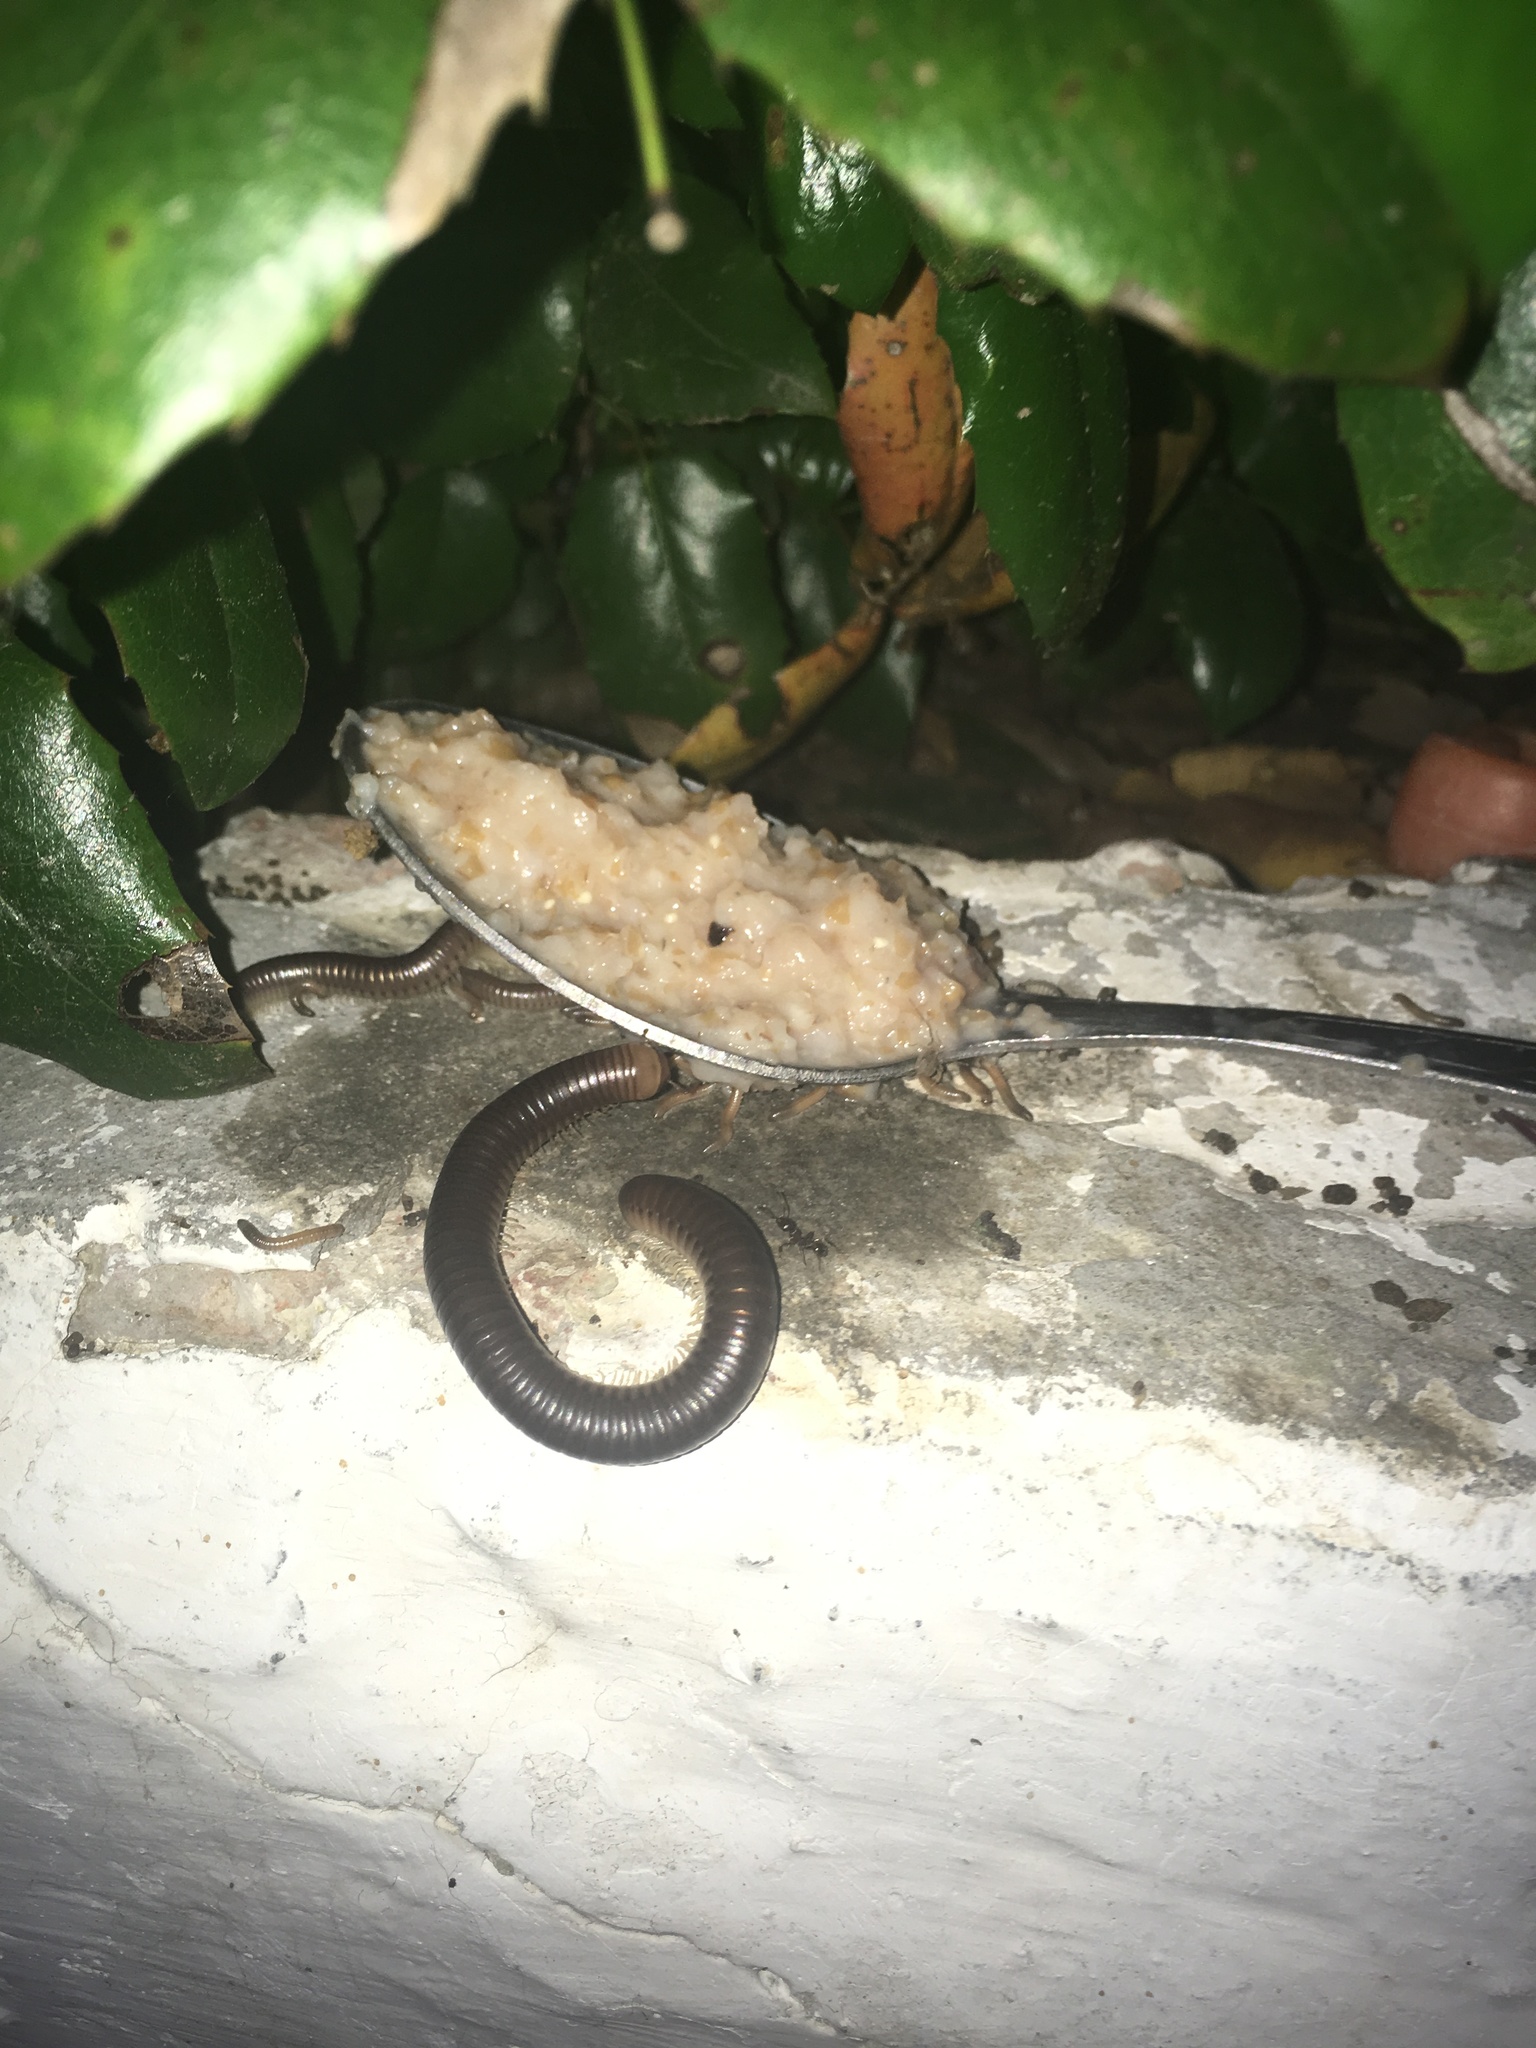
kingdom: Animalia
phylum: Arthropoda
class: Diplopoda
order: Julida
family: Julidae
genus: Pachyiulus
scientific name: Pachyiulus flavipes
